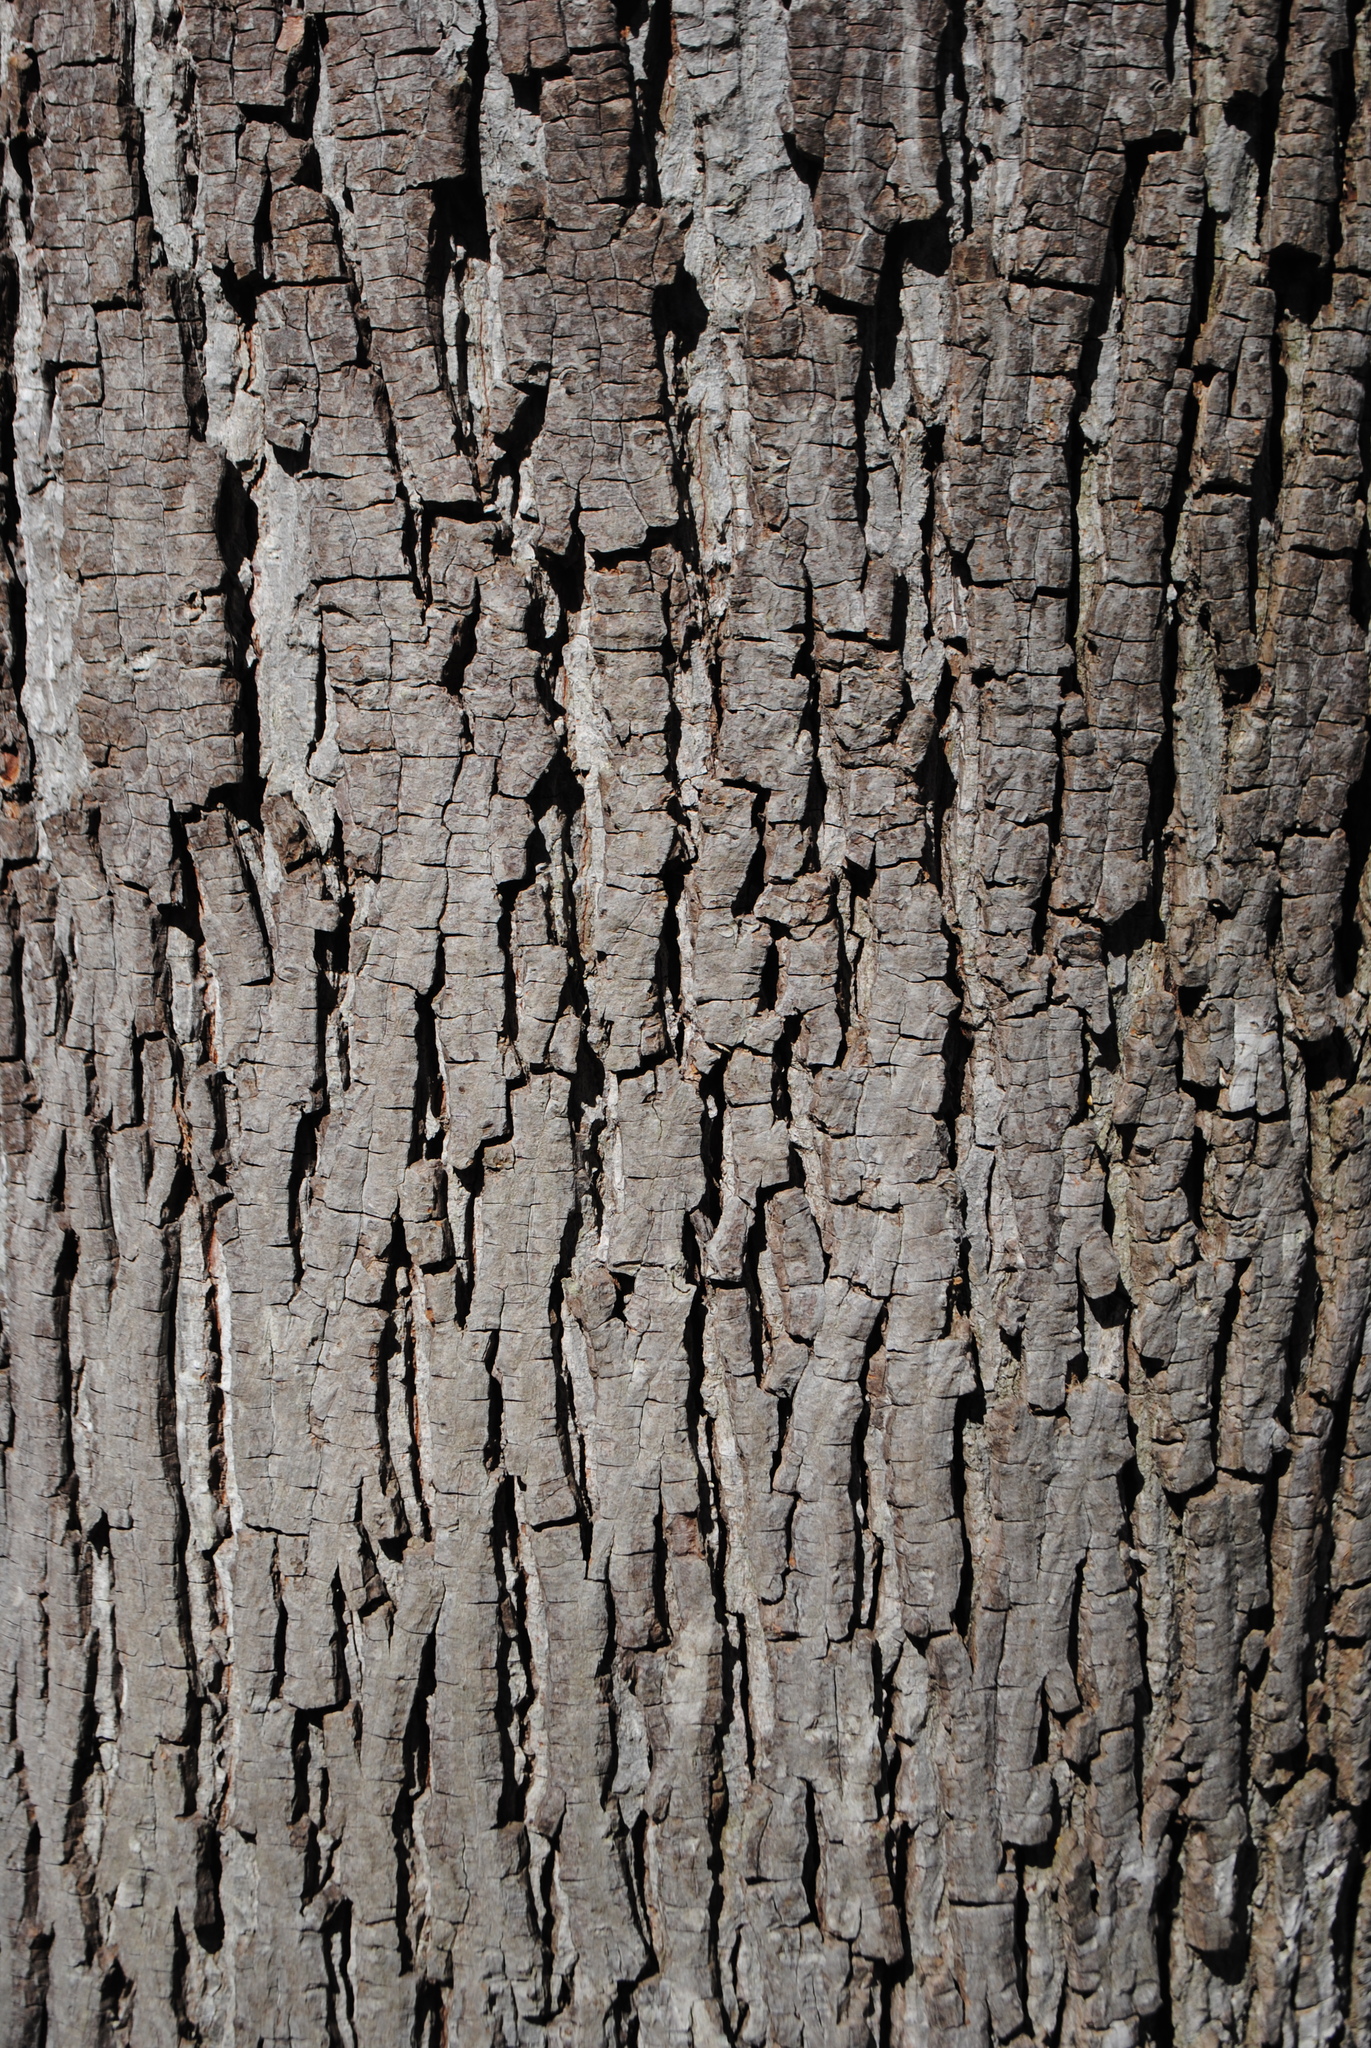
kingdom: Plantae
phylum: Tracheophyta
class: Magnoliopsida
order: Fagales
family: Juglandaceae
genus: Carya
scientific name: Carya ovata
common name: Shagbark hickory
